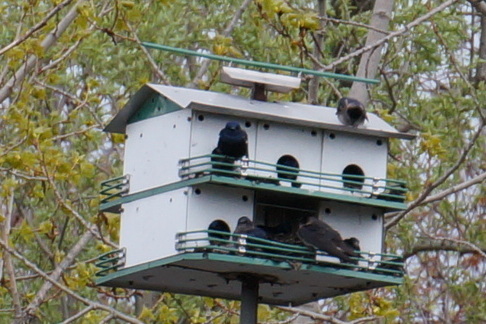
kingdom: Animalia
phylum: Chordata
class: Aves
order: Passeriformes
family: Hirundinidae
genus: Progne
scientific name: Progne subis
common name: Purple martin
